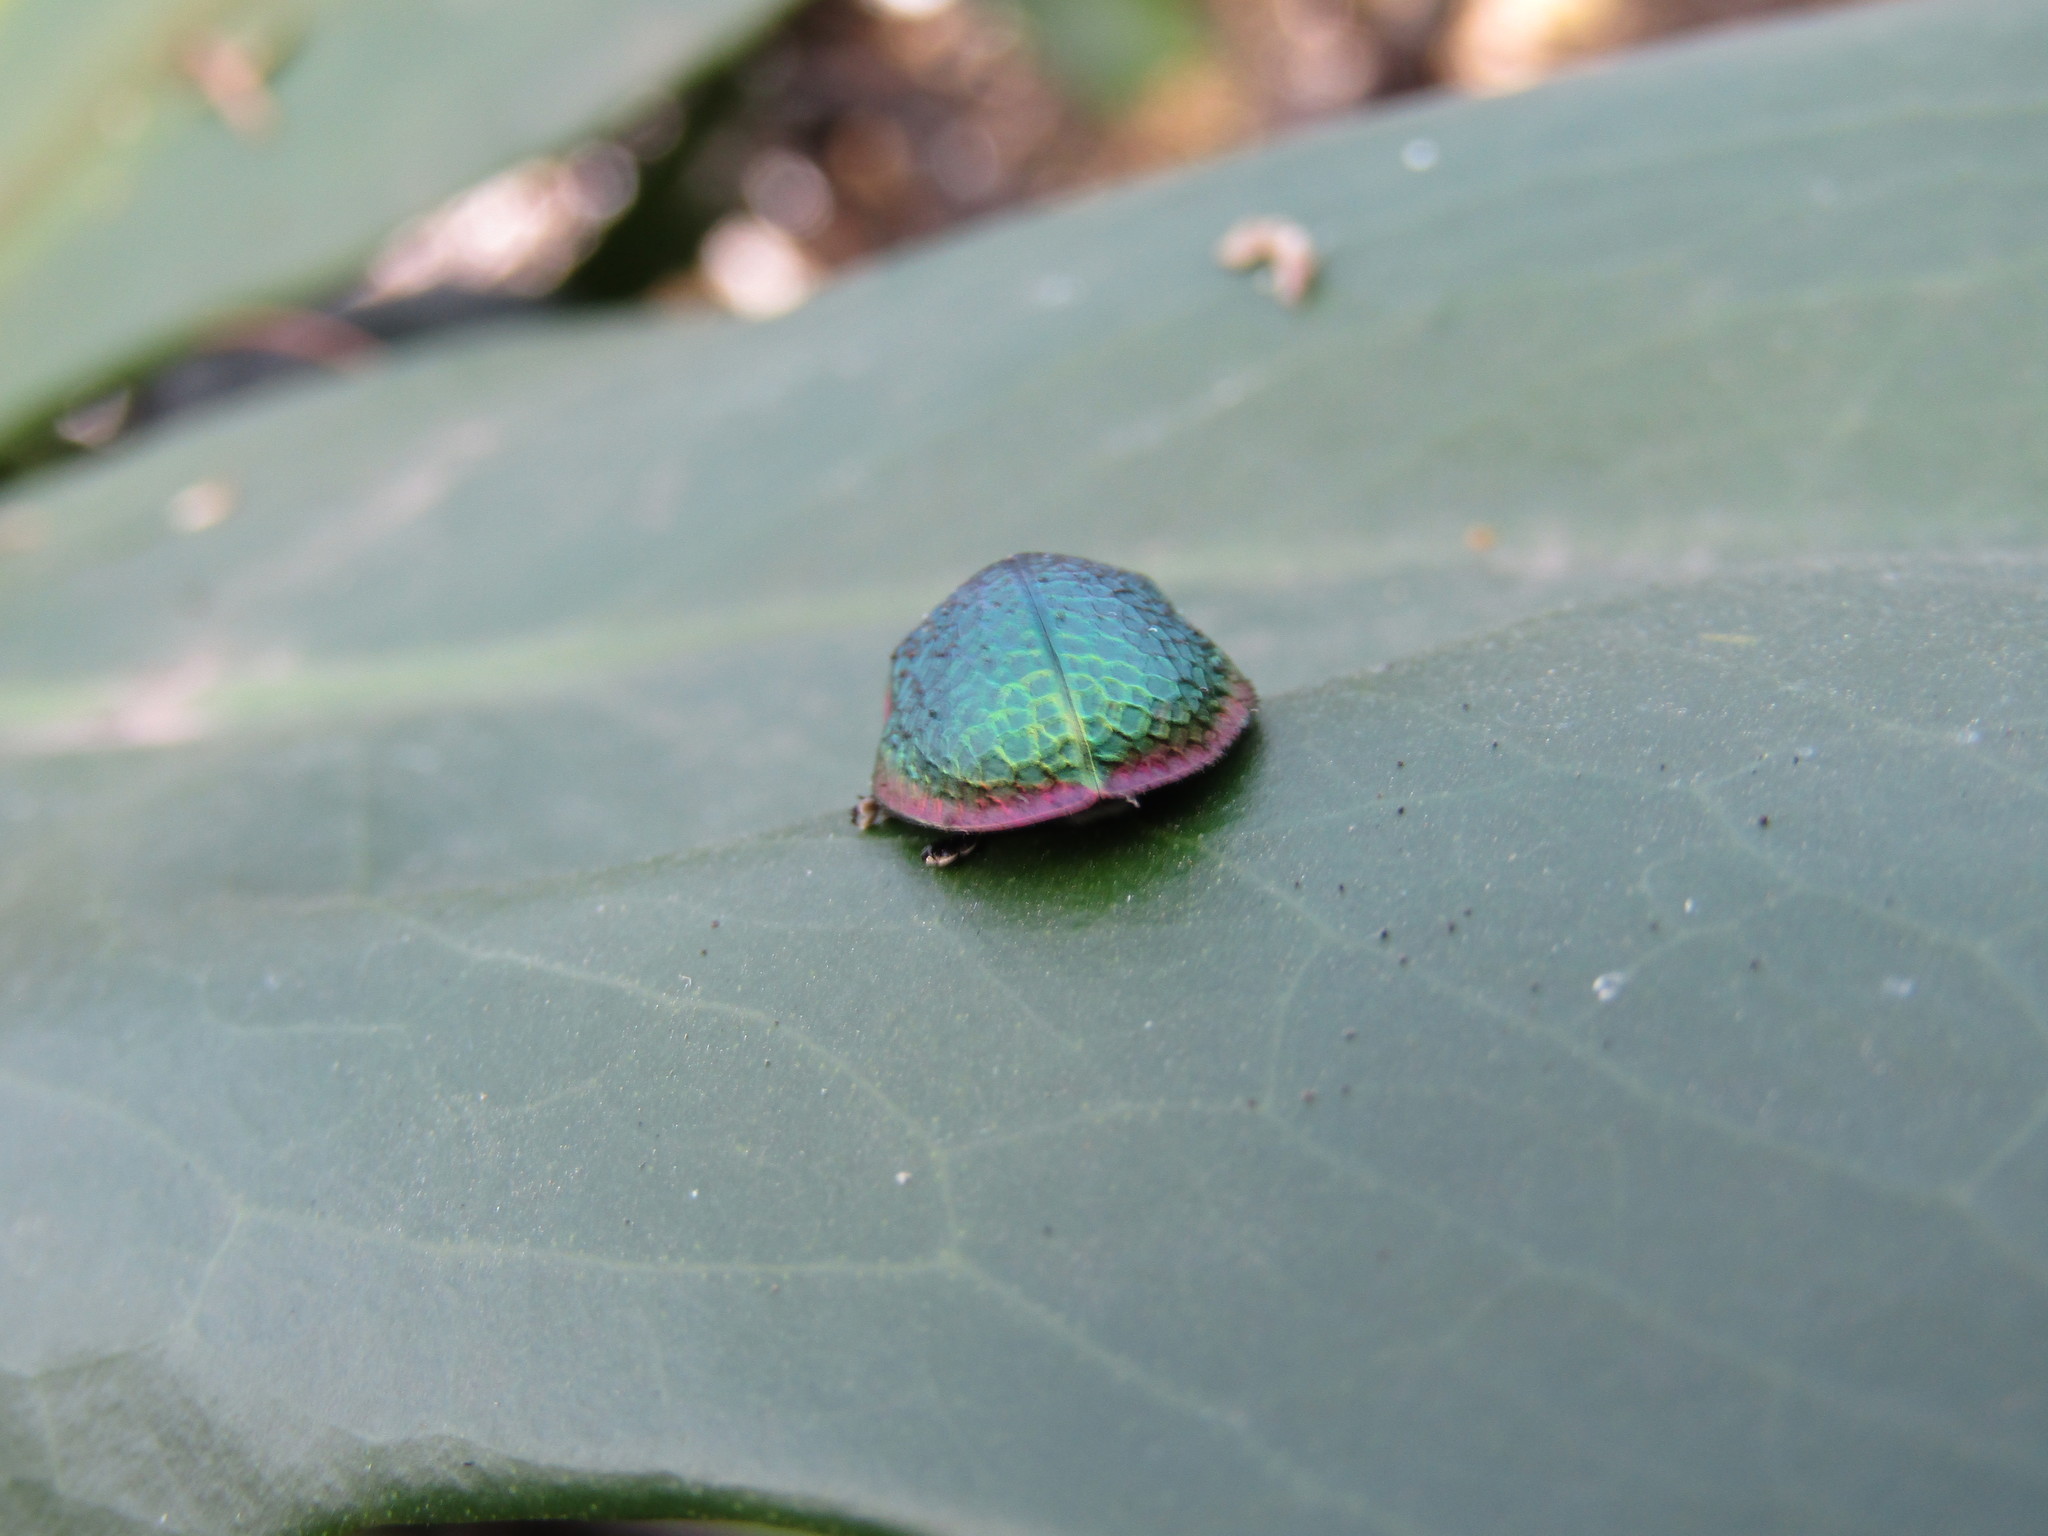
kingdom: Animalia
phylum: Arthropoda
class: Insecta
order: Coleoptera
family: Chrysomelidae
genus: Stolas
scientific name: Stolas festiva
